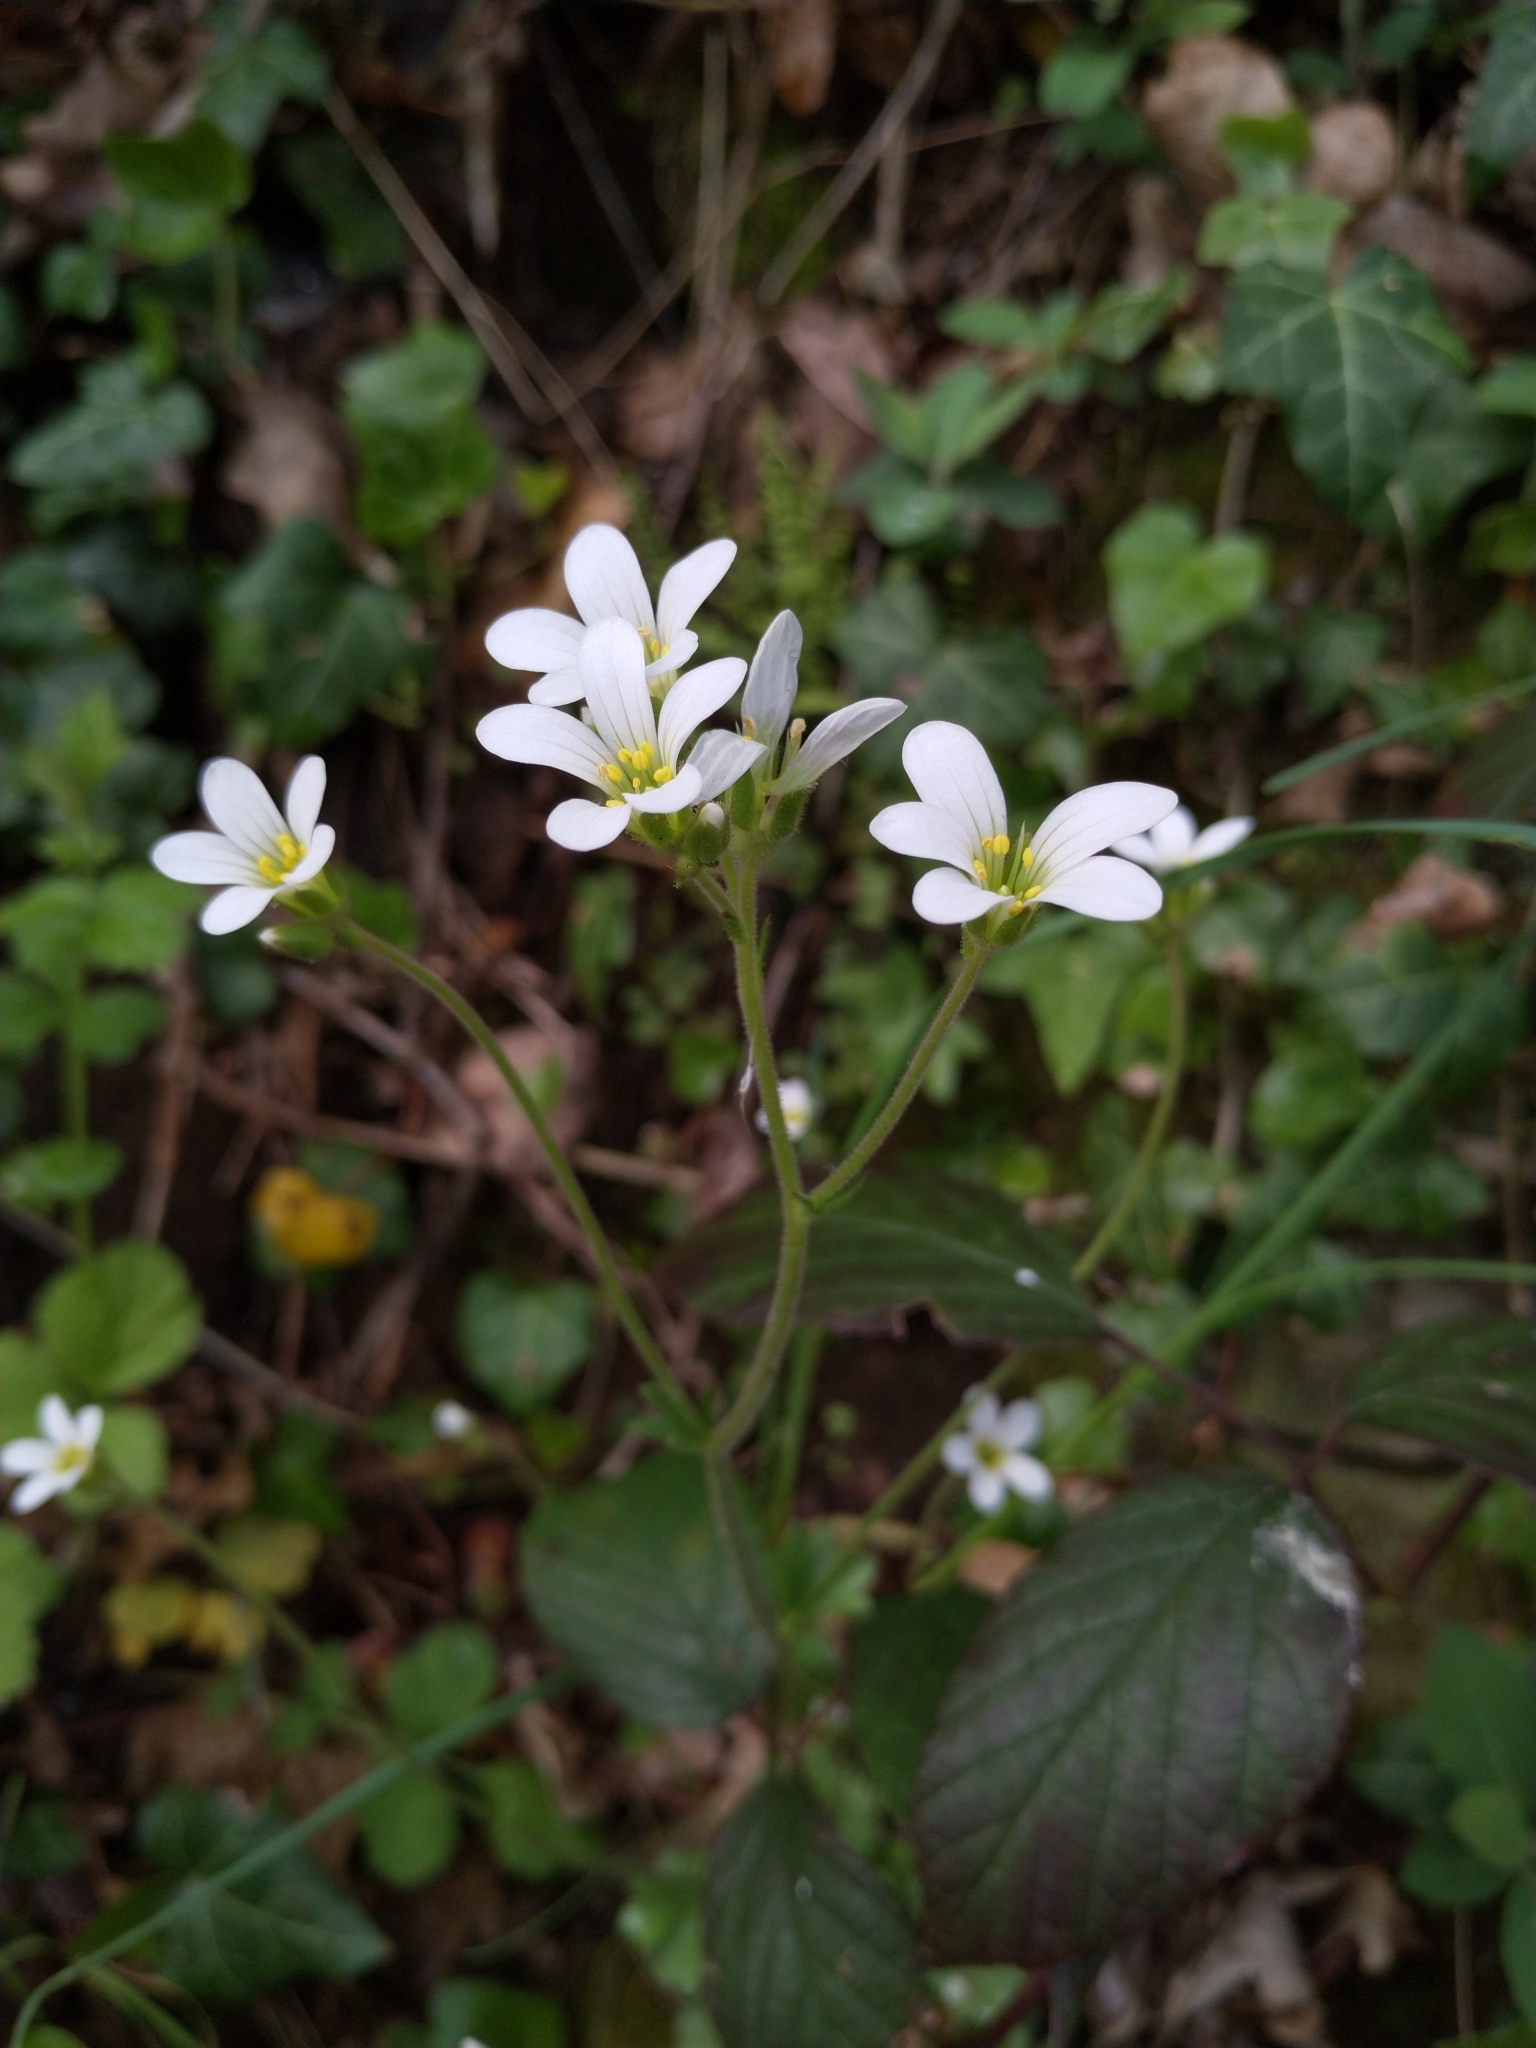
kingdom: Plantae
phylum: Tracheophyta
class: Magnoliopsida
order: Saxifragales
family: Saxifragaceae
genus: Saxifraga
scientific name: Saxifraga granulata
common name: Meadow saxifrage
